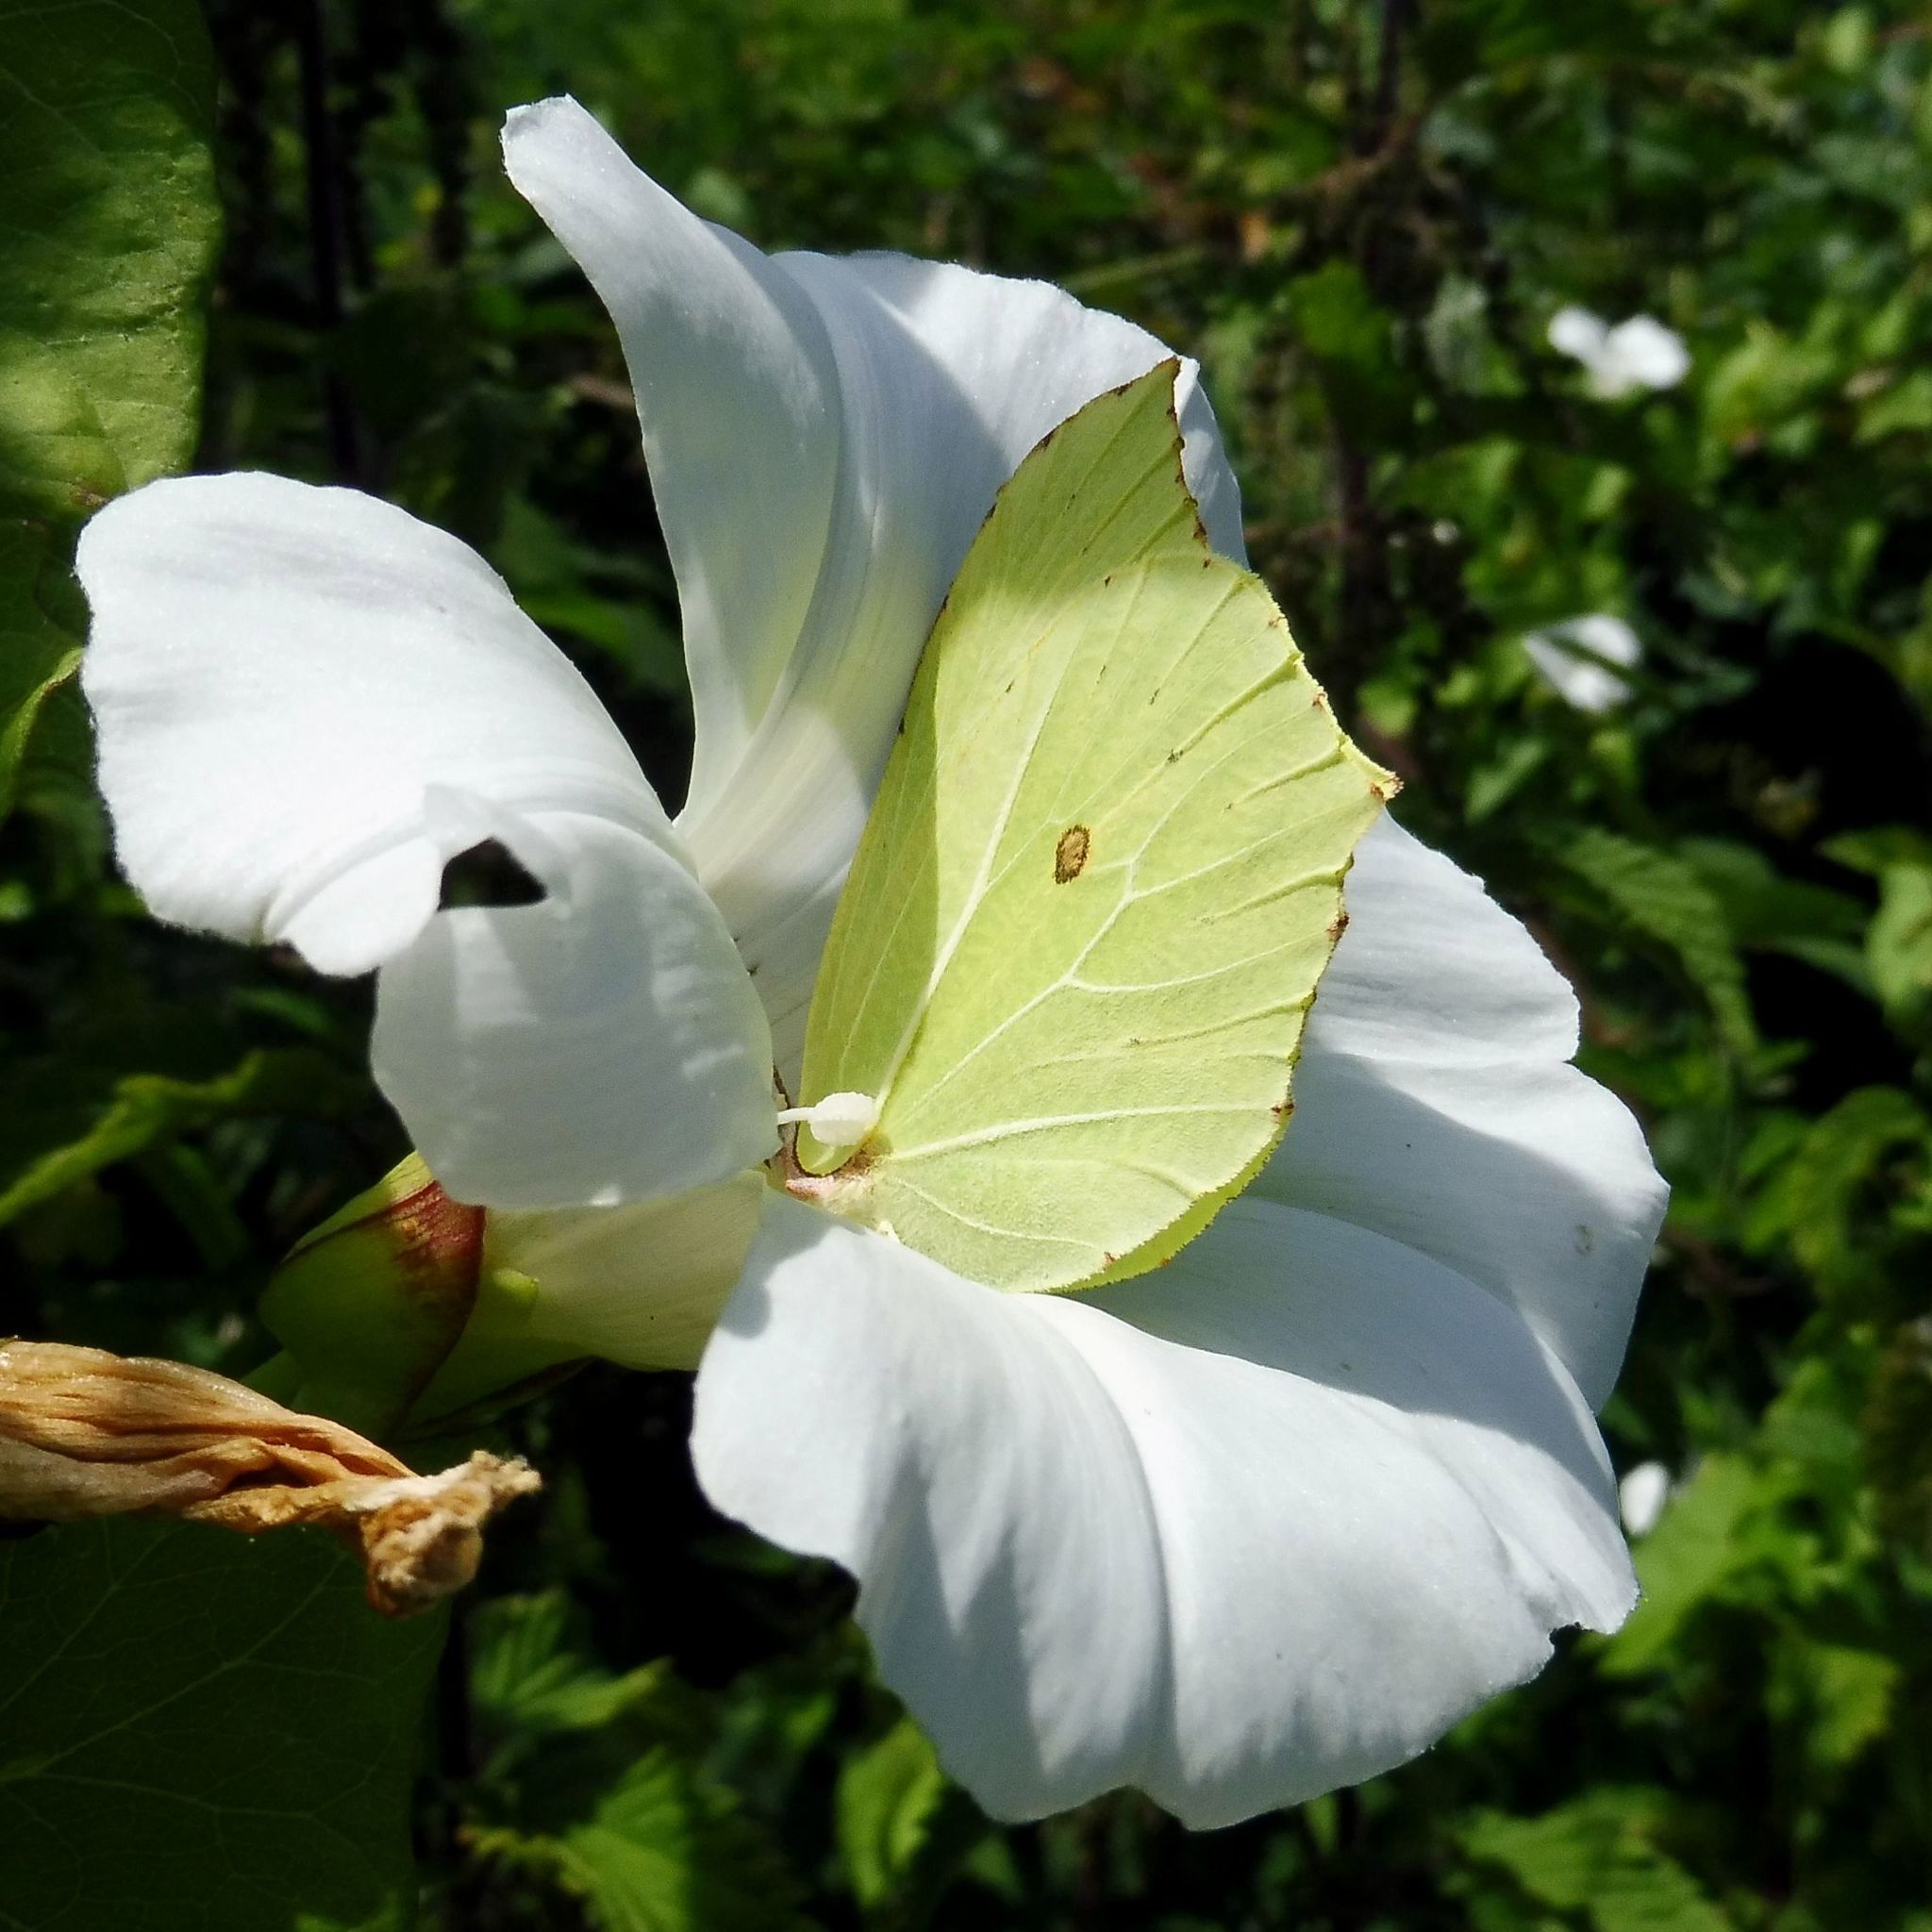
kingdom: Animalia
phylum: Arthropoda
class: Insecta
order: Lepidoptera
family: Pieridae
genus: Gonepteryx
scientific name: Gonepteryx rhamni
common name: Brimstone
